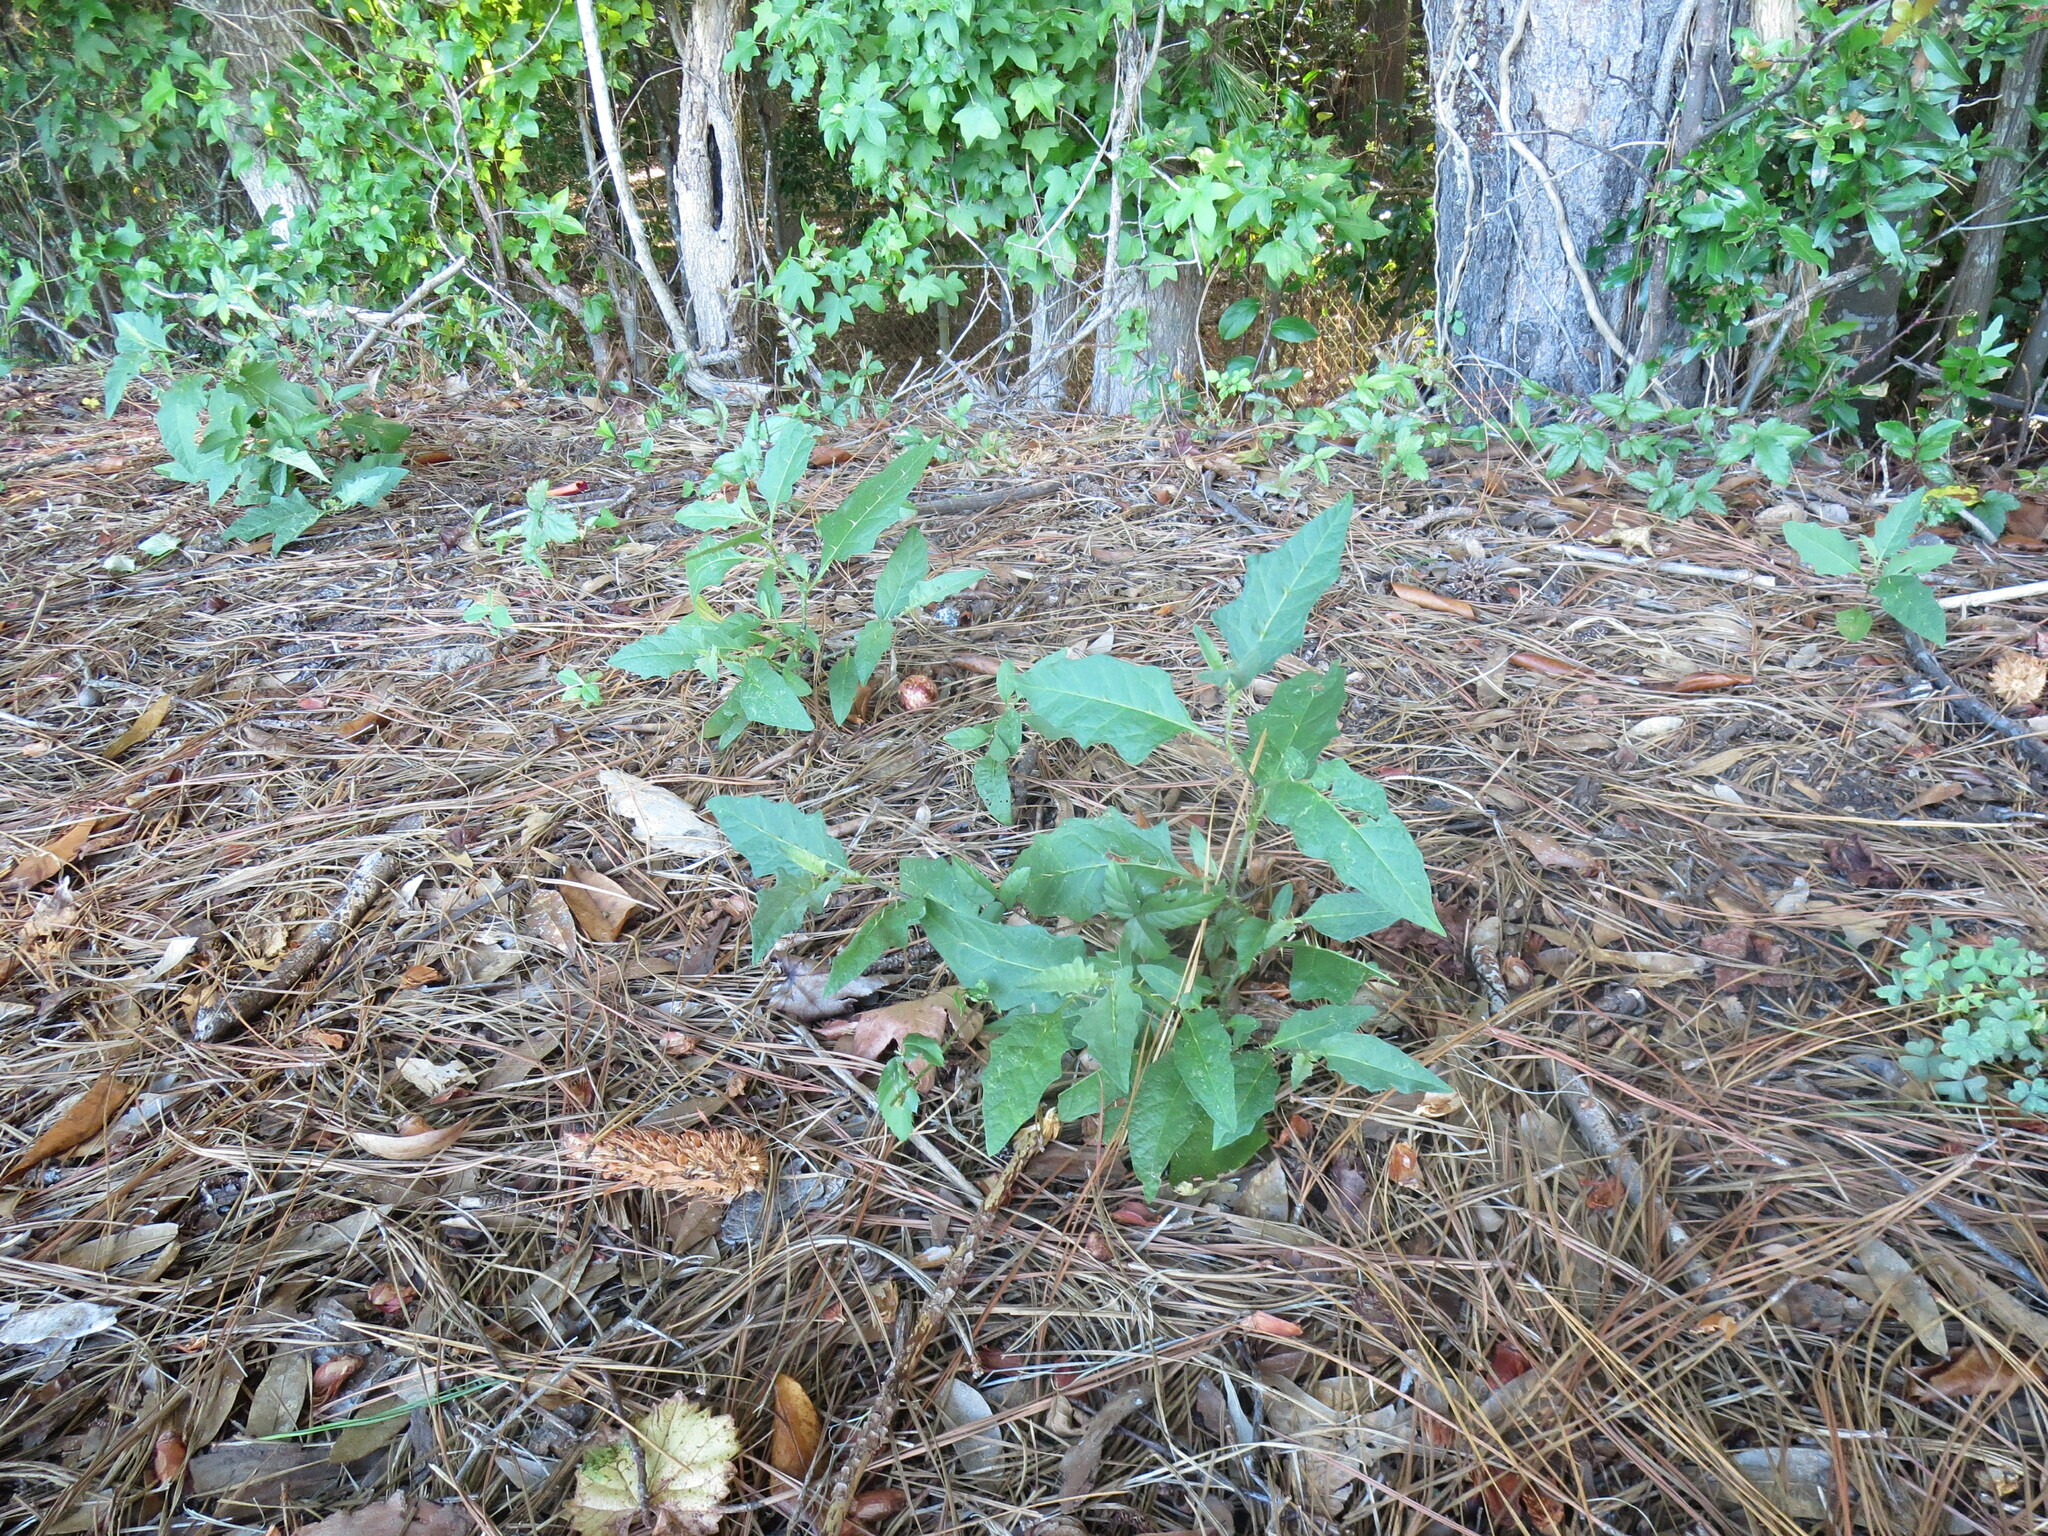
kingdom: Plantae
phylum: Tracheophyta
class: Magnoliopsida
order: Solanales
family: Solanaceae
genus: Solanum
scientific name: Solanum carolinense
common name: Horse-nettle
